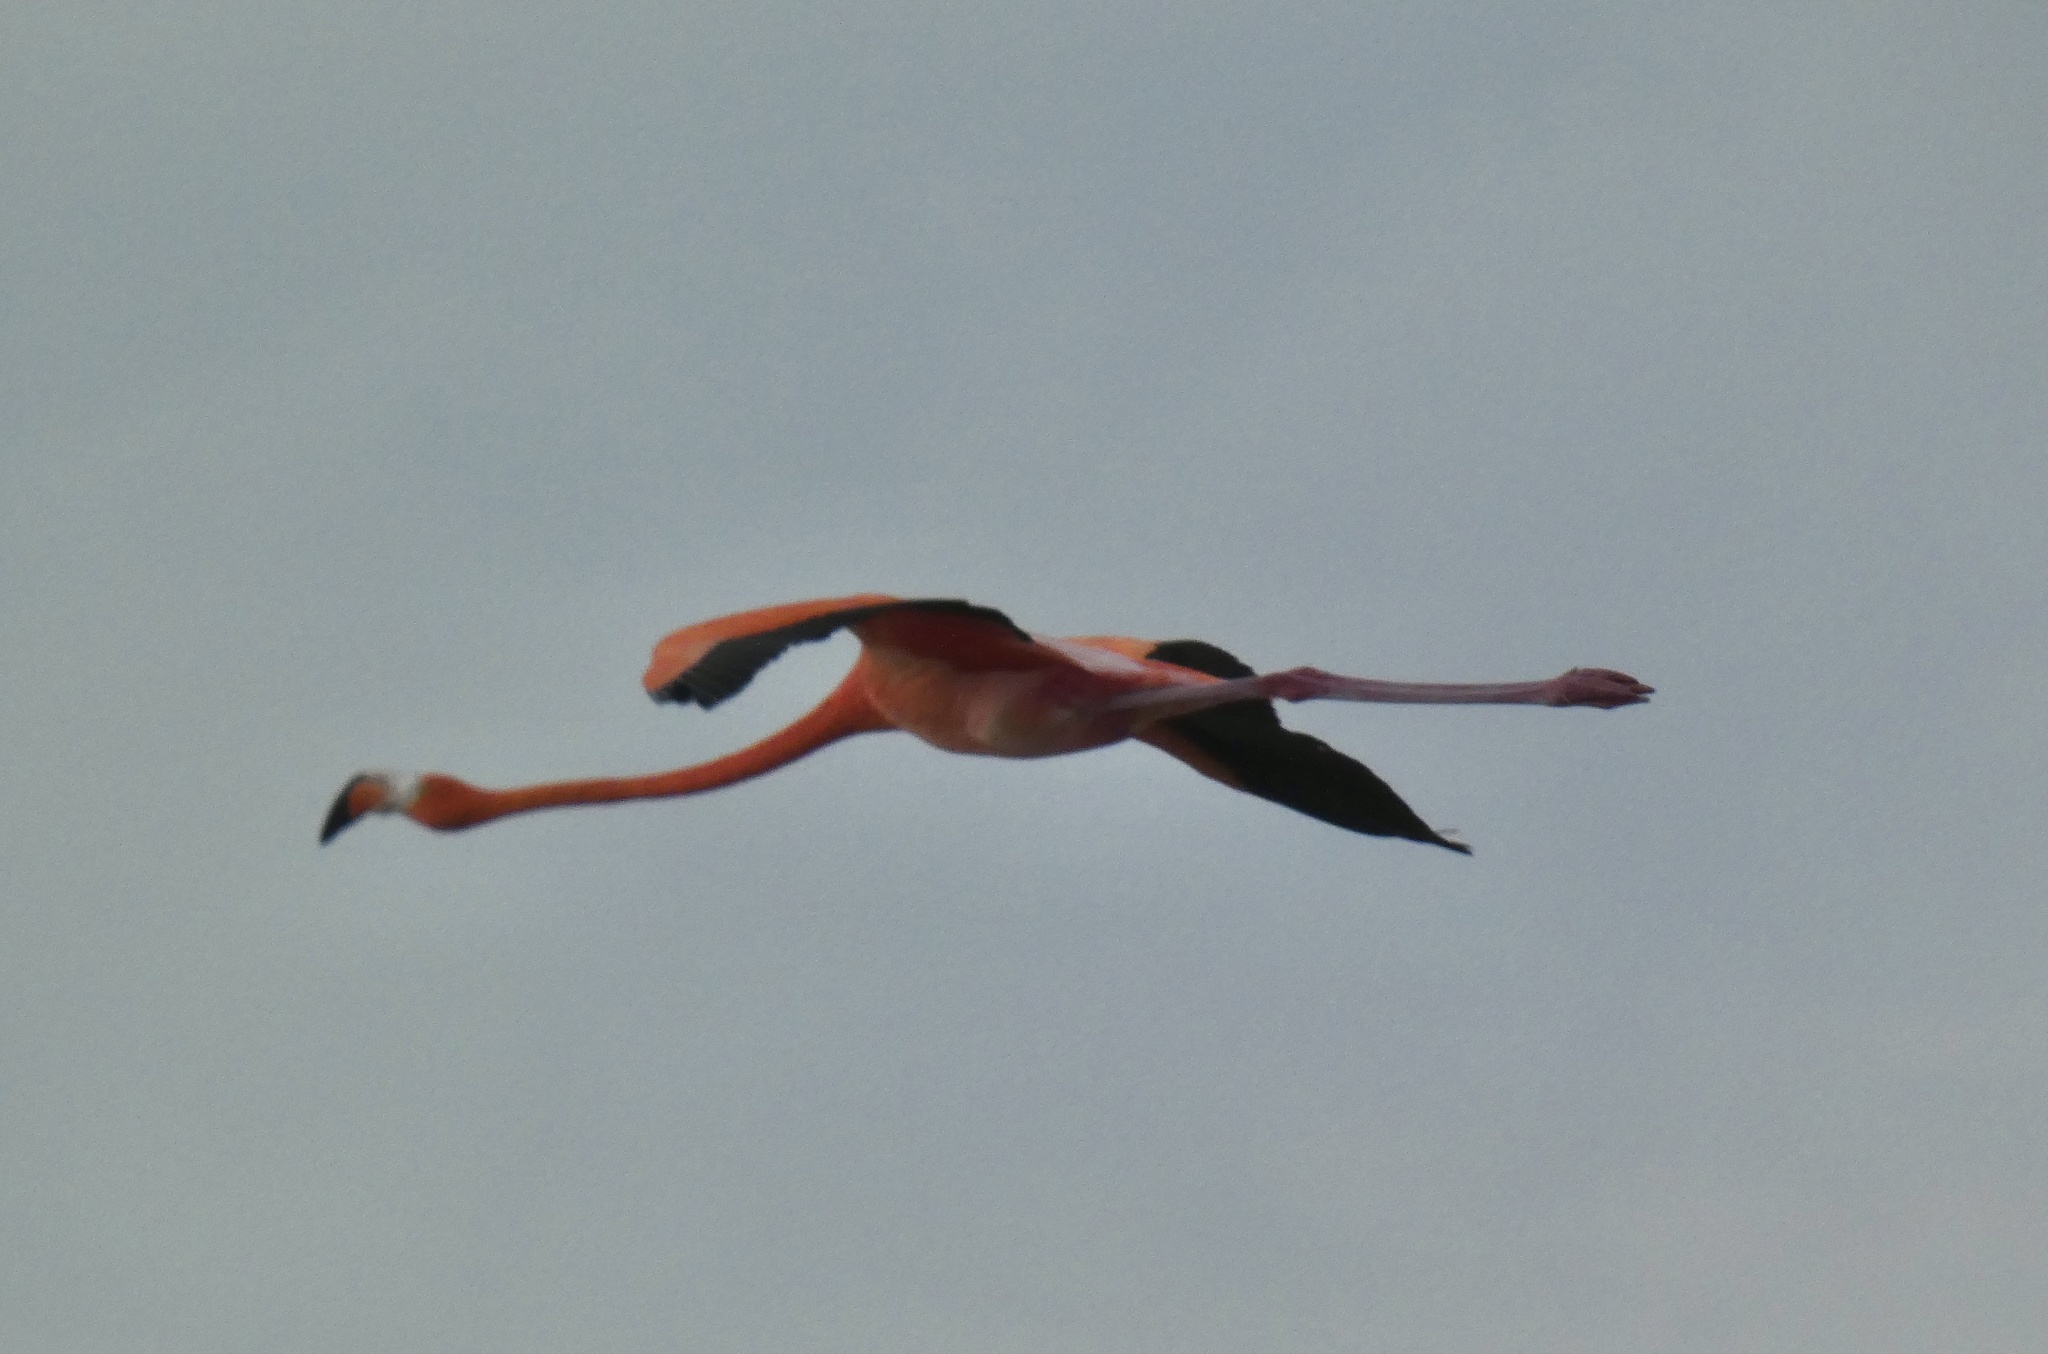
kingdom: Animalia
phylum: Chordata
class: Aves
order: Phoenicopteriformes
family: Phoenicopteridae
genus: Phoenicopterus
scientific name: Phoenicopterus ruber
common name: American flamingo
